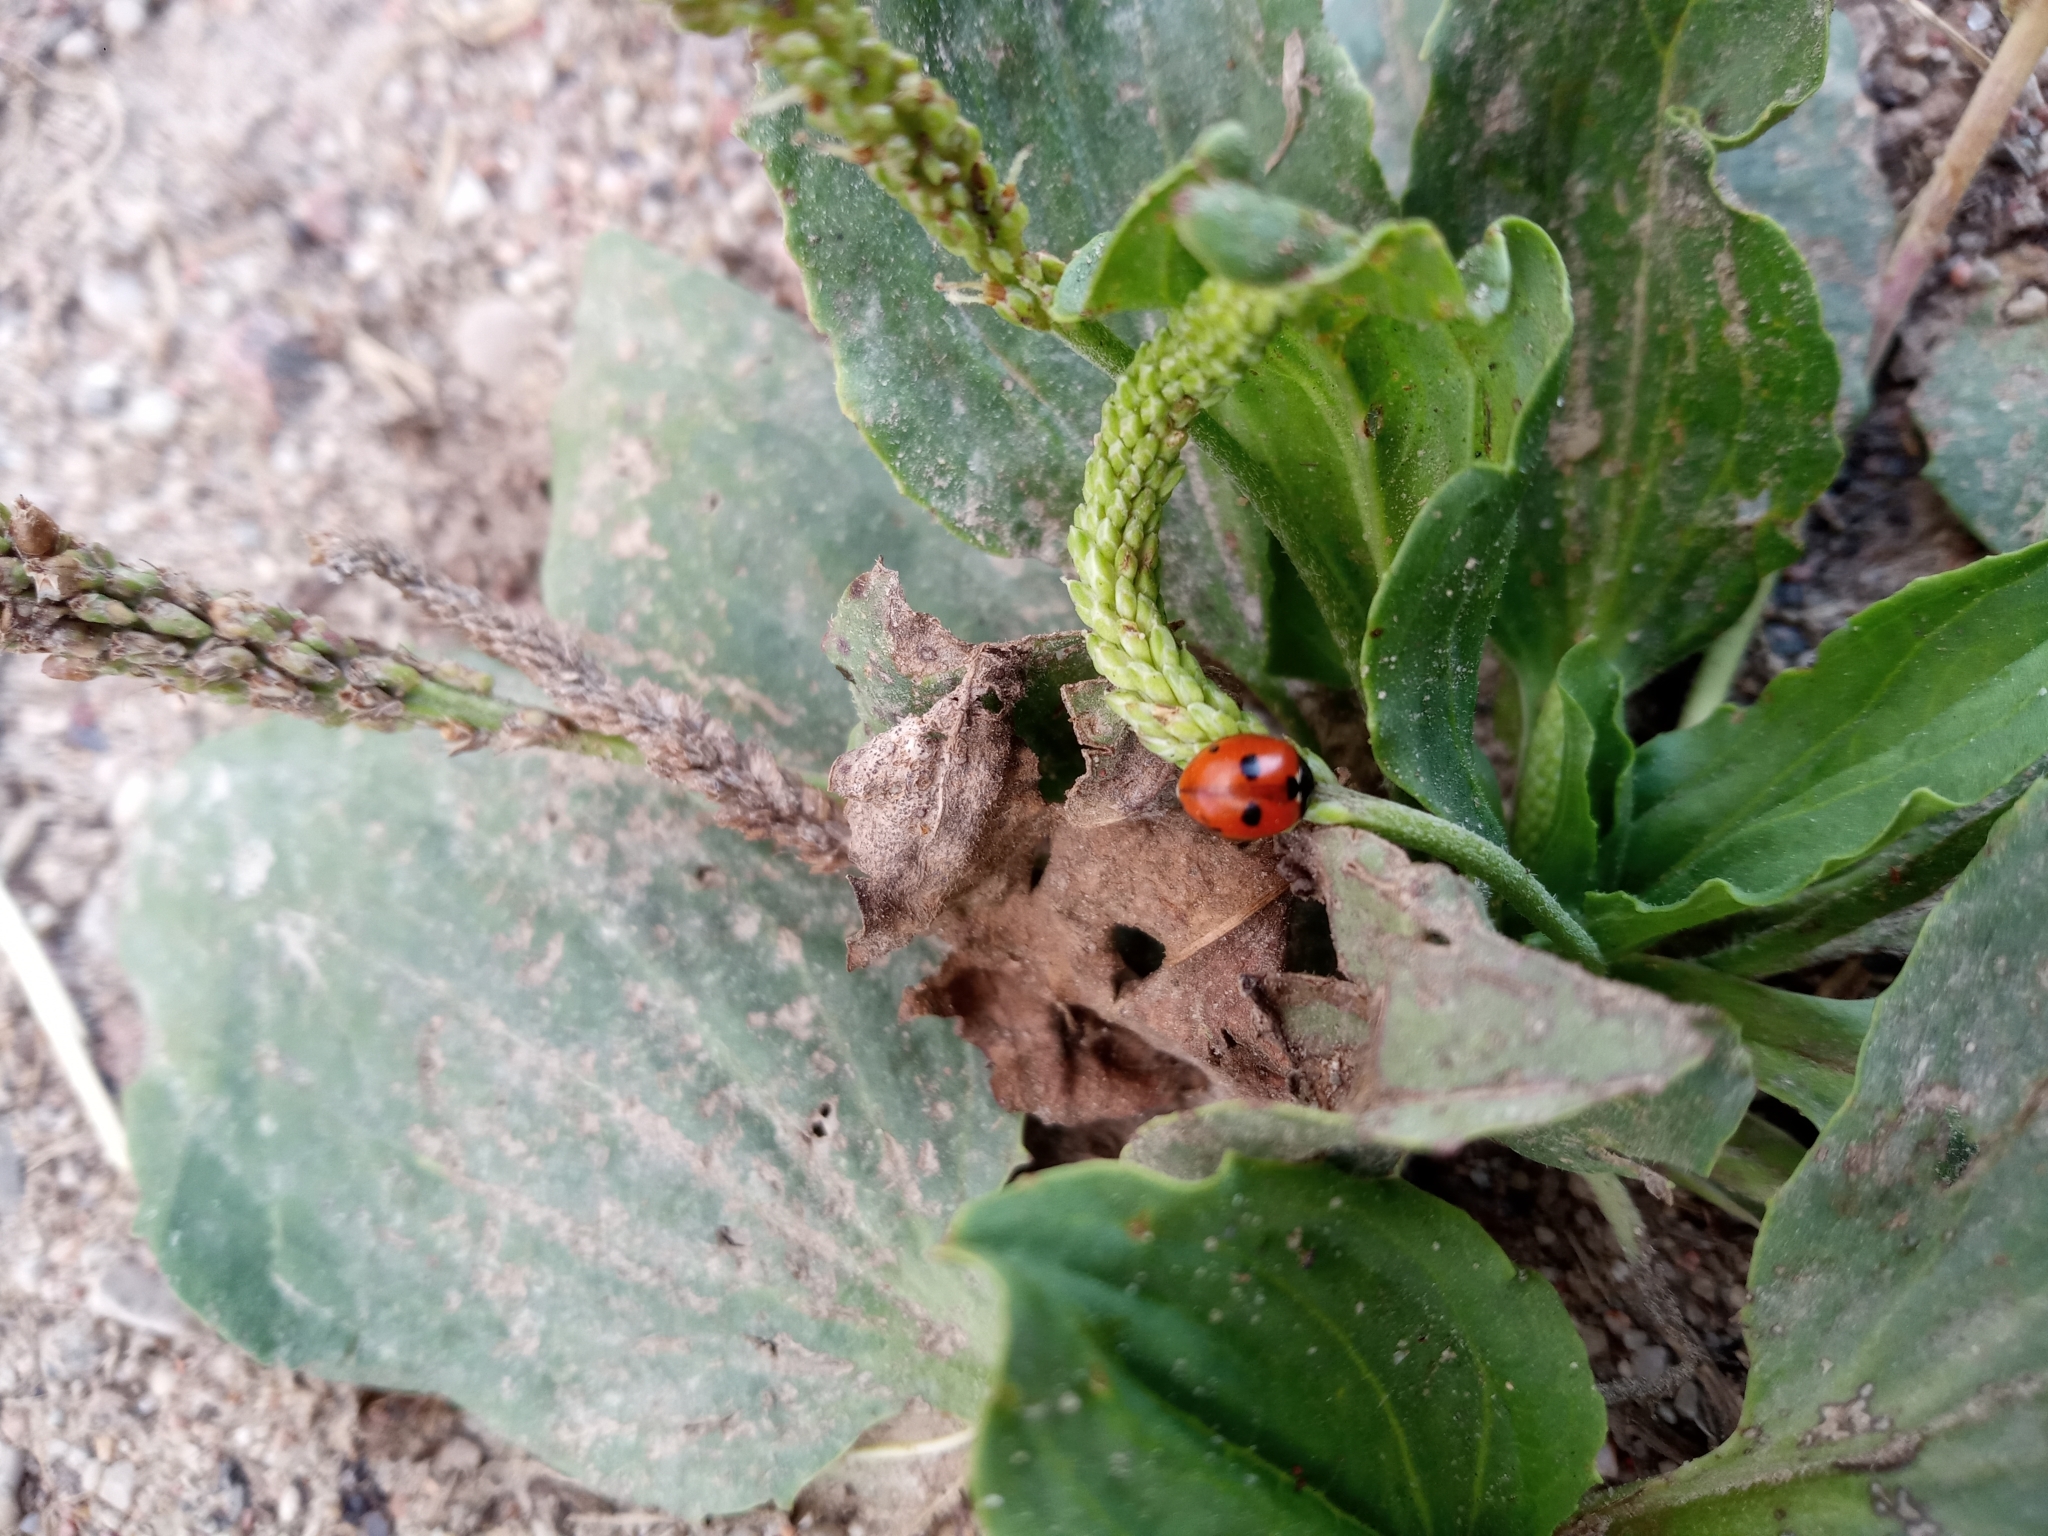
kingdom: Animalia
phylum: Arthropoda
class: Insecta
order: Coleoptera
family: Coccinellidae
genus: Coccinella
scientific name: Coccinella quinquepunctata
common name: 5-spot ladybird
